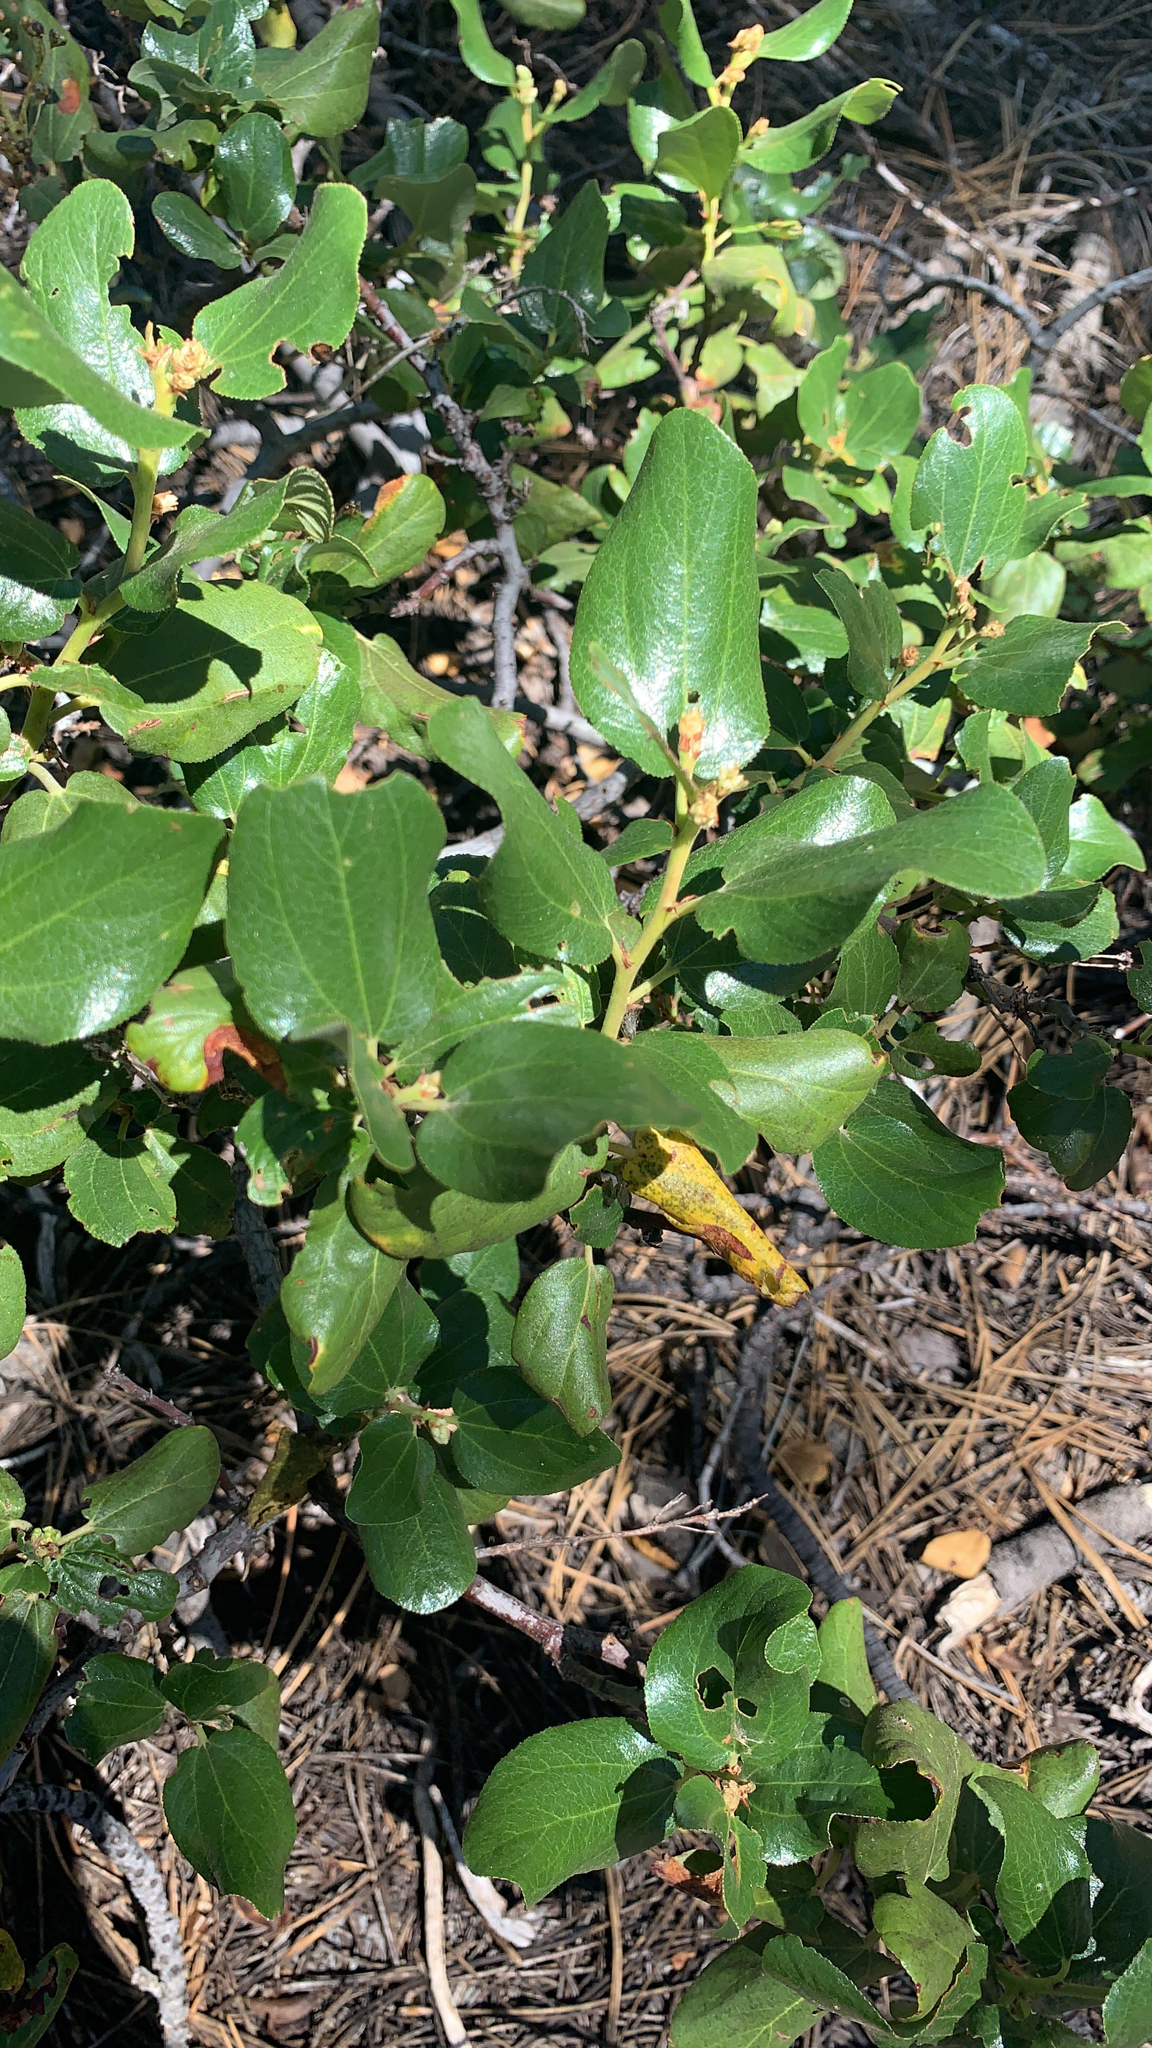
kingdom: Plantae
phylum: Tracheophyta
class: Magnoliopsida
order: Rosales
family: Rhamnaceae
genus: Ceanothus
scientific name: Ceanothus velutinus
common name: Snowbrush
